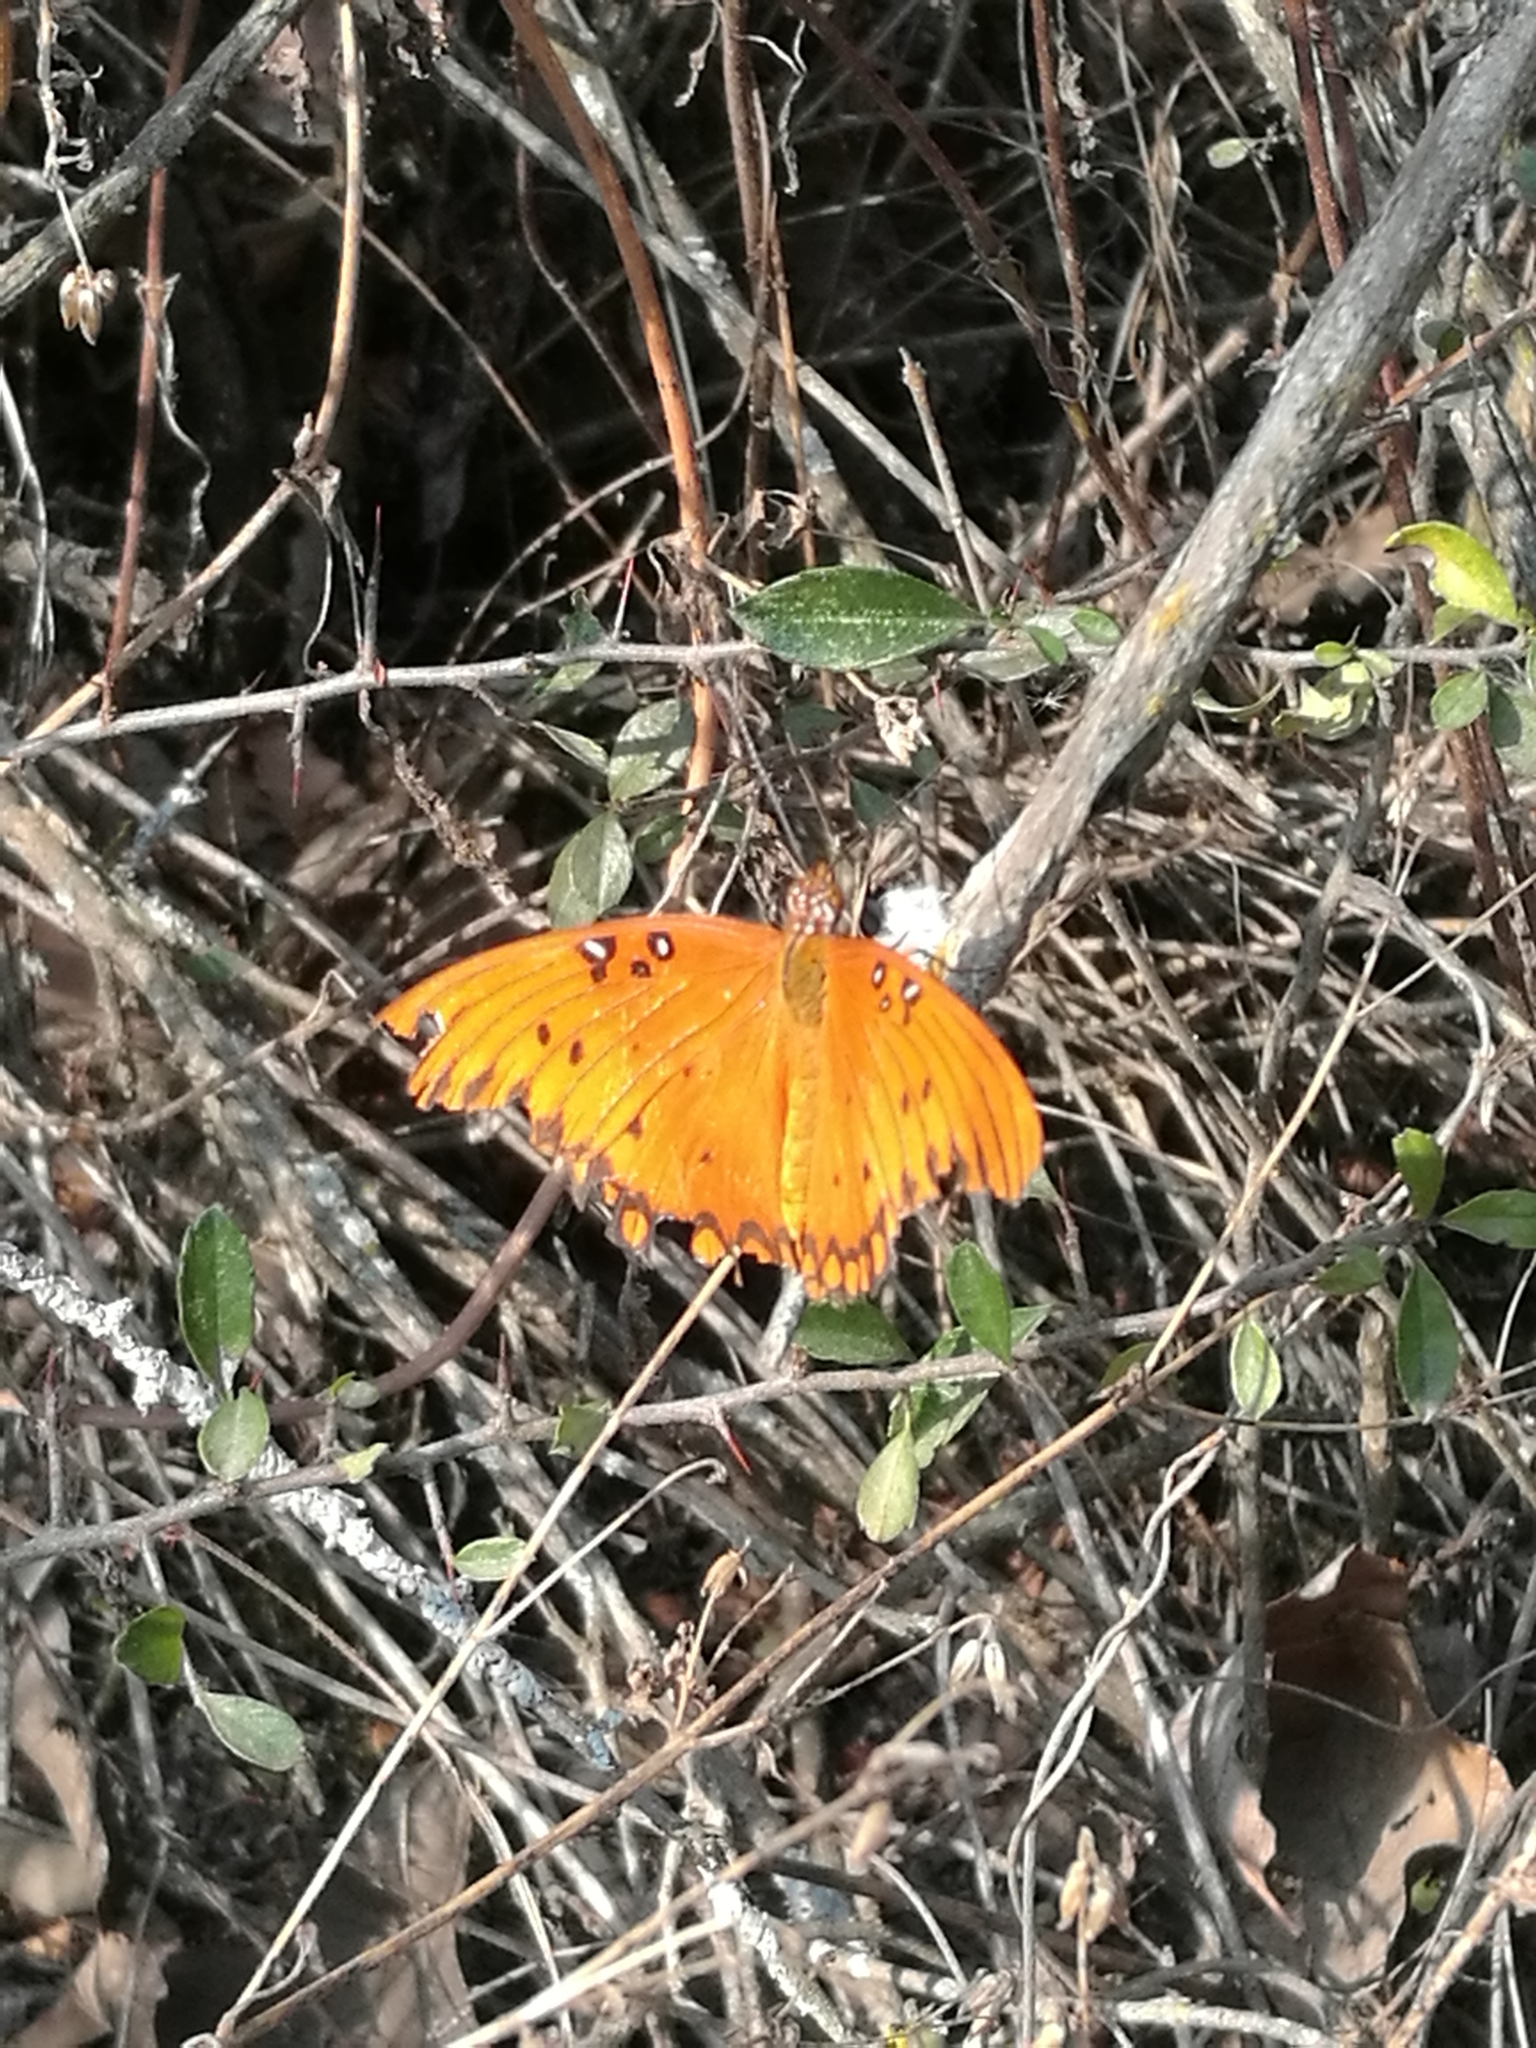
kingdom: Animalia
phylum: Arthropoda
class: Insecta
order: Lepidoptera
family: Nymphalidae
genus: Dione
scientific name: Dione vanillae
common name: Gulf fritillary
